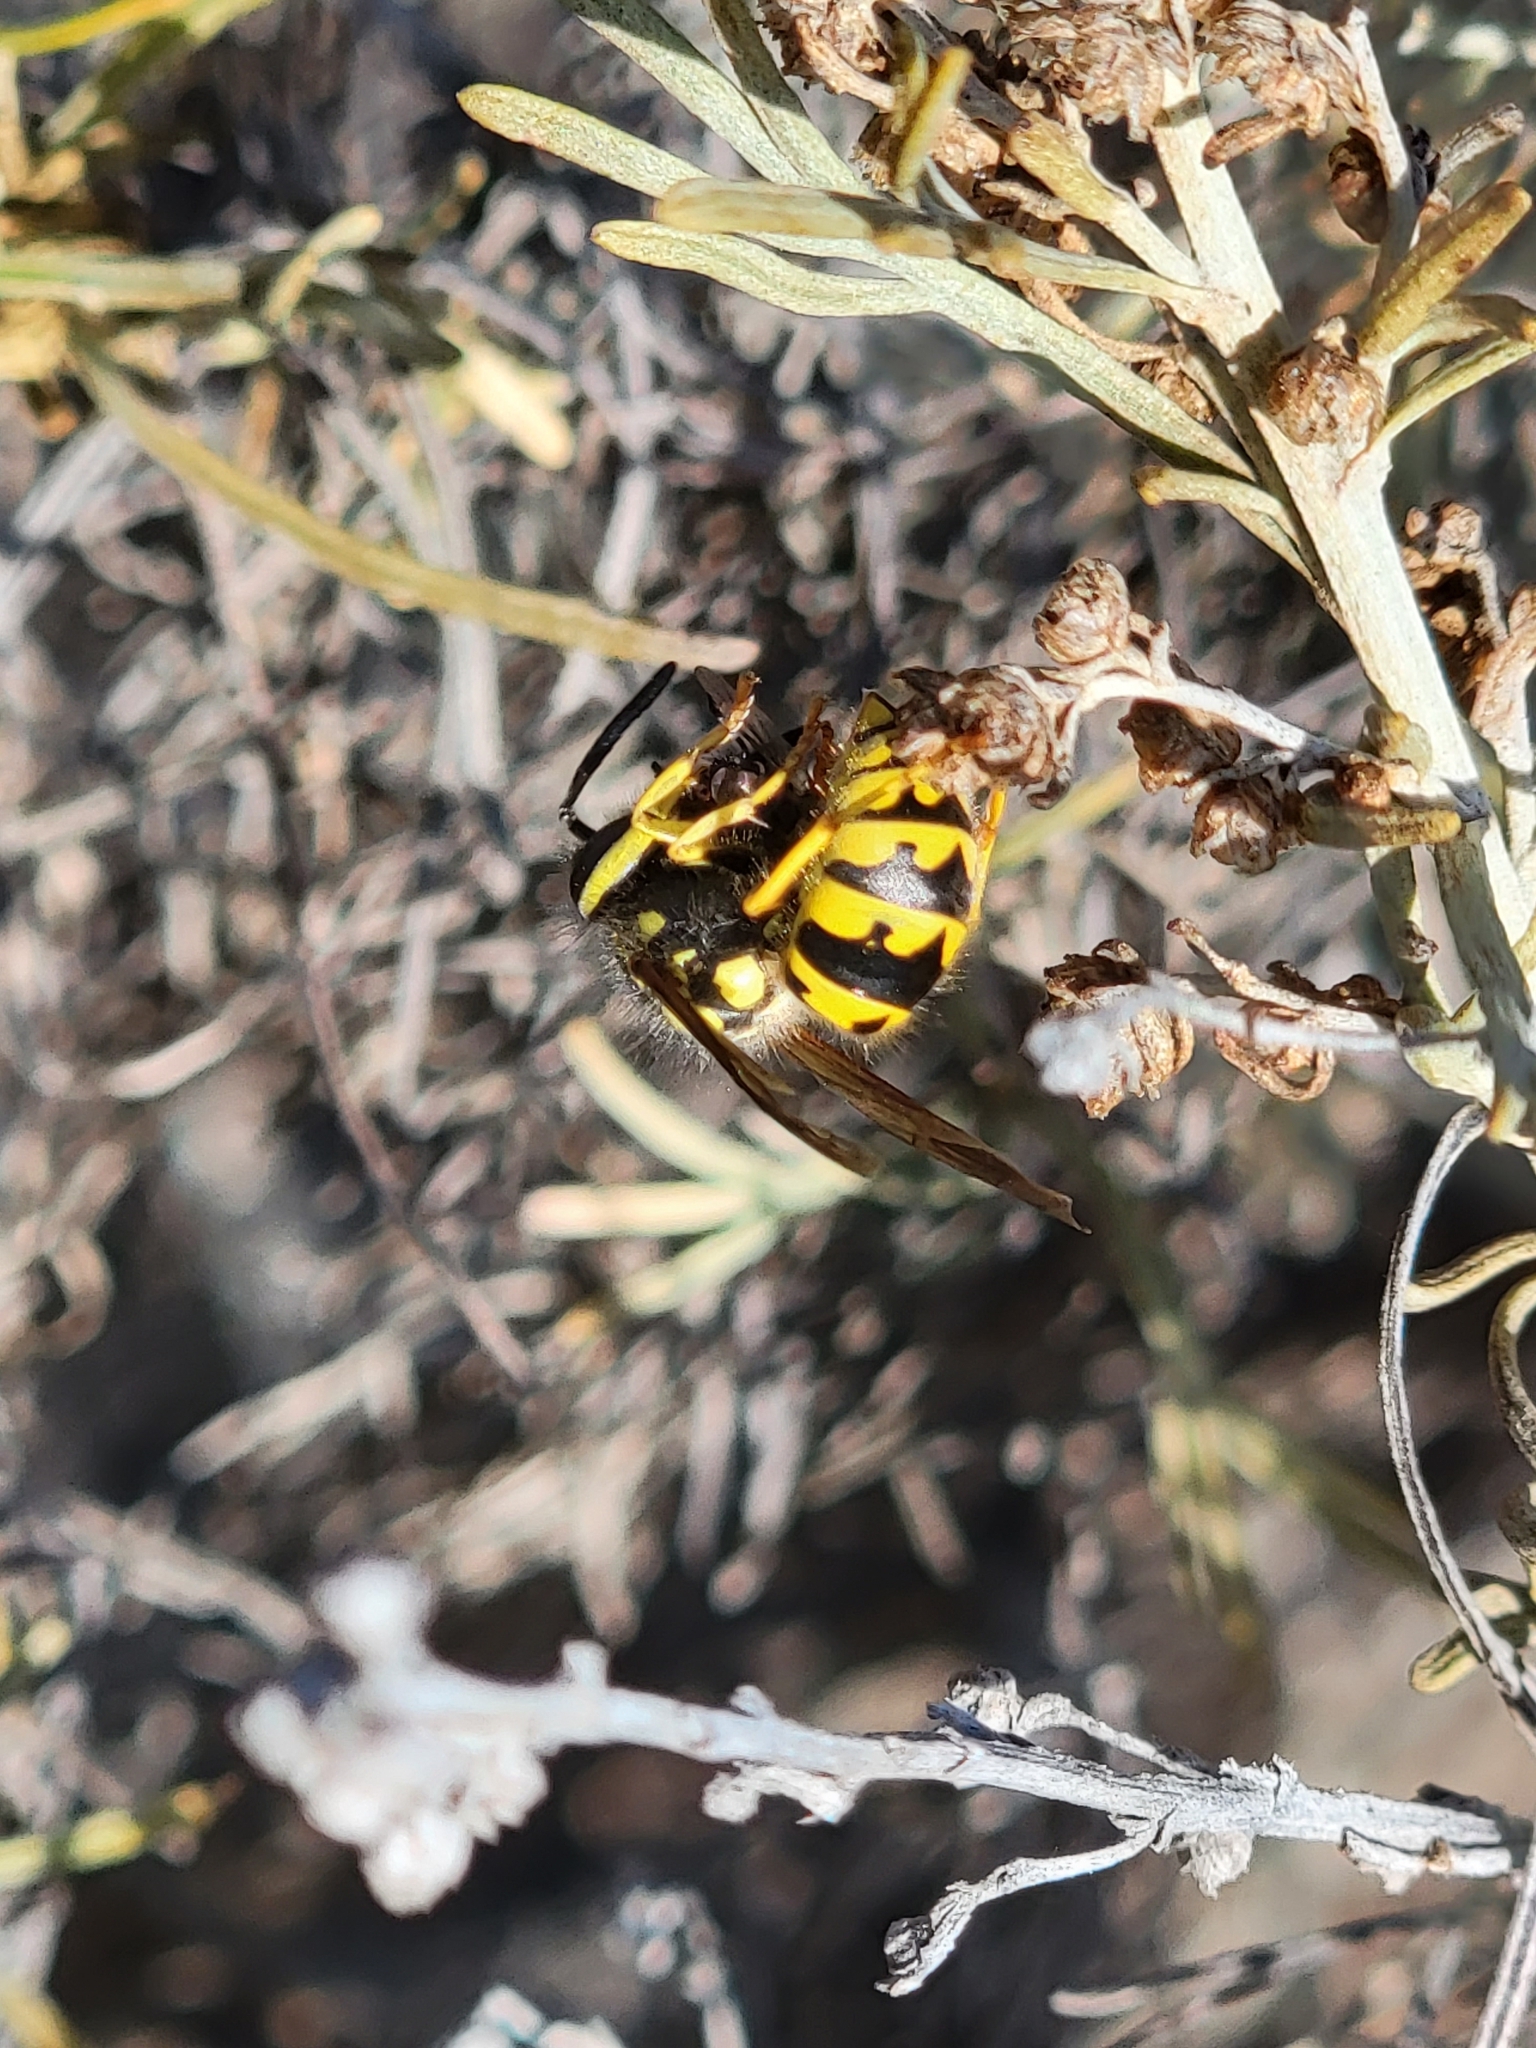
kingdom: Animalia
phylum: Arthropoda
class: Insecta
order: Hymenoptera
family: Vespidae
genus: Vespula
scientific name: Vespula pensylvanica
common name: Western yellowjacket
